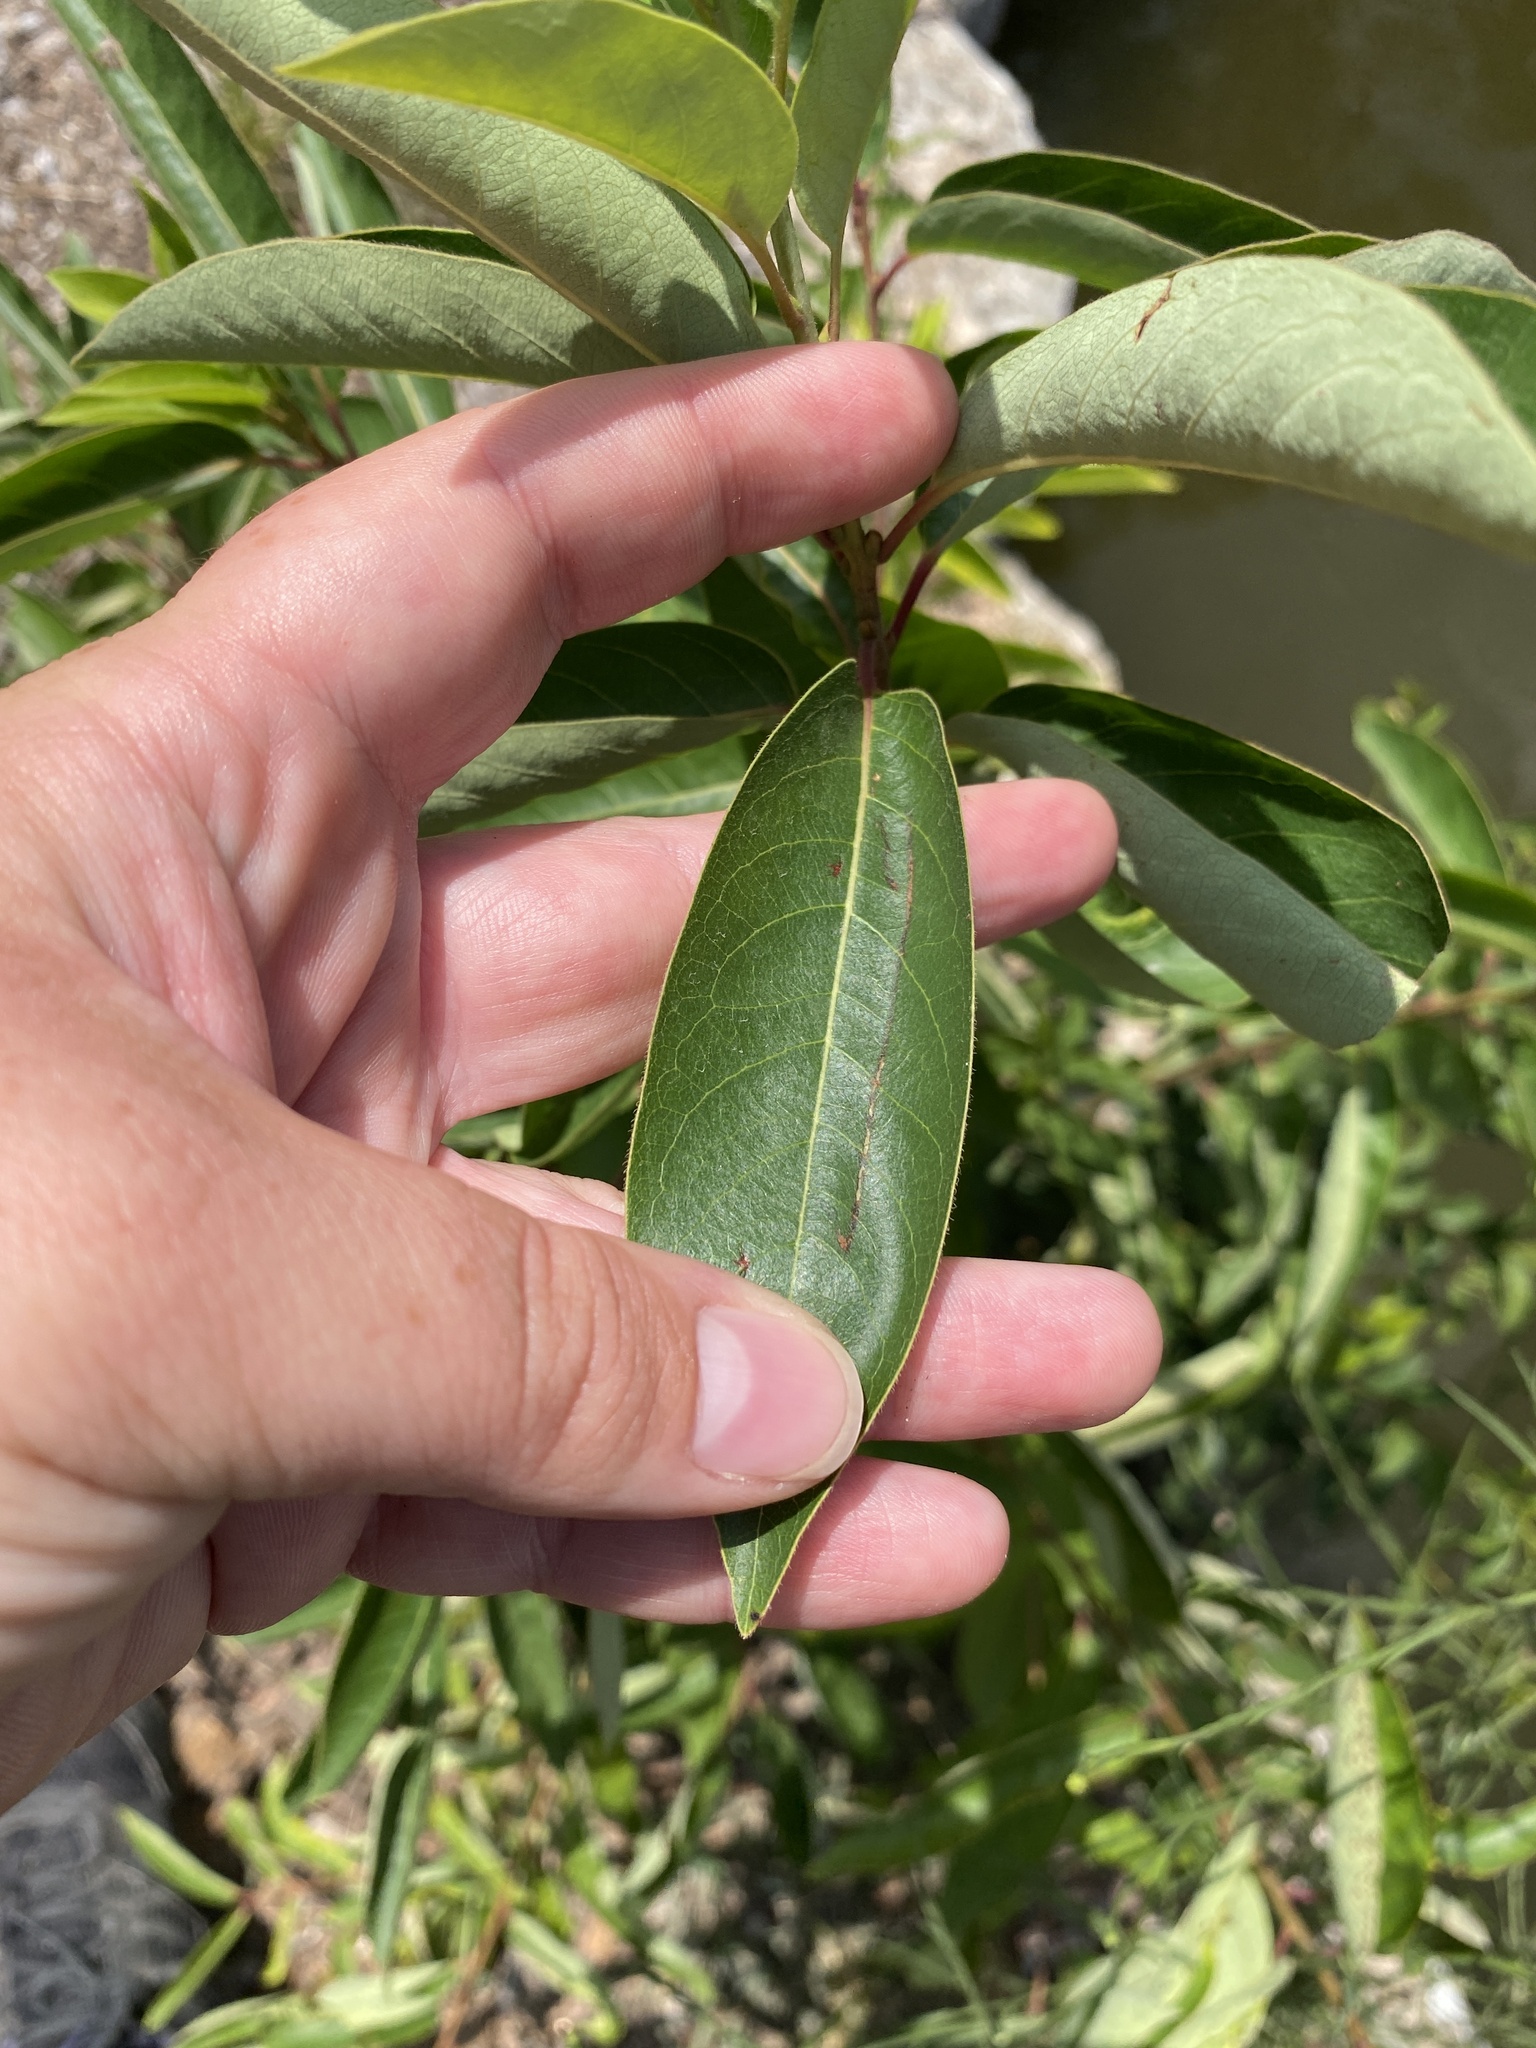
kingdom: Plantae
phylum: Tracheophyta
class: Magnoliopsida
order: Ericales
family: Ebenaceae
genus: Diospyros
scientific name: Diospyros virginiana
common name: Persimmon
